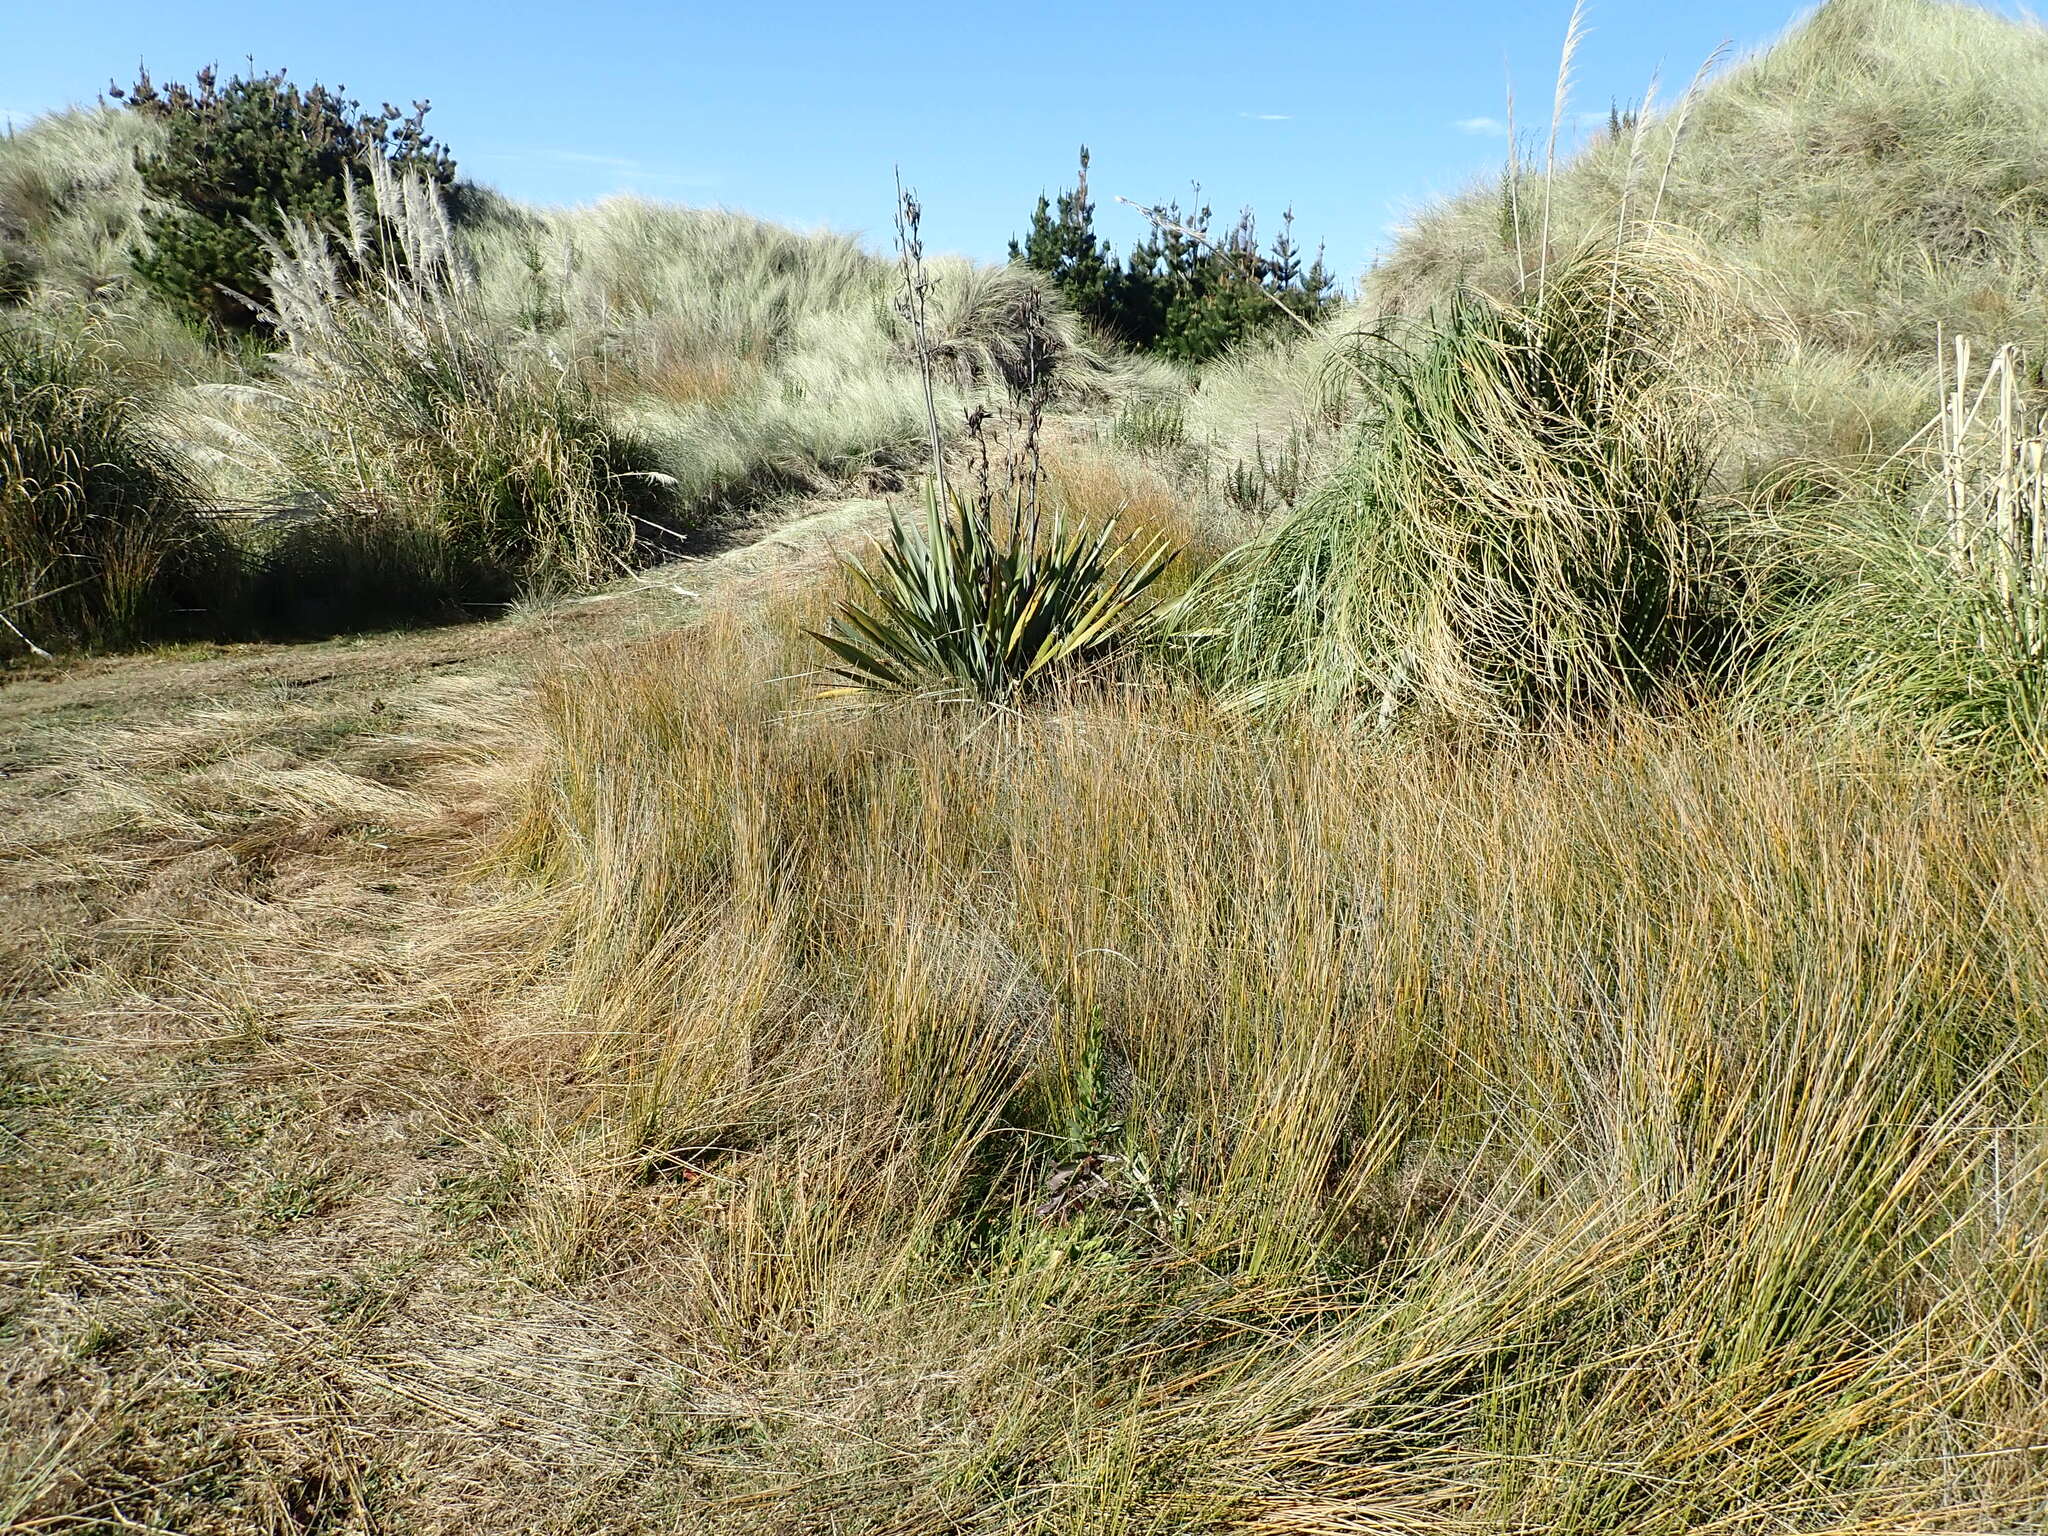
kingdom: Plantae
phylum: Tracheophyta
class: Liliopsida
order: Asparagales
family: Asphodelaceae
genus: Phormium
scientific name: Phormium tenax
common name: New zealand flax
